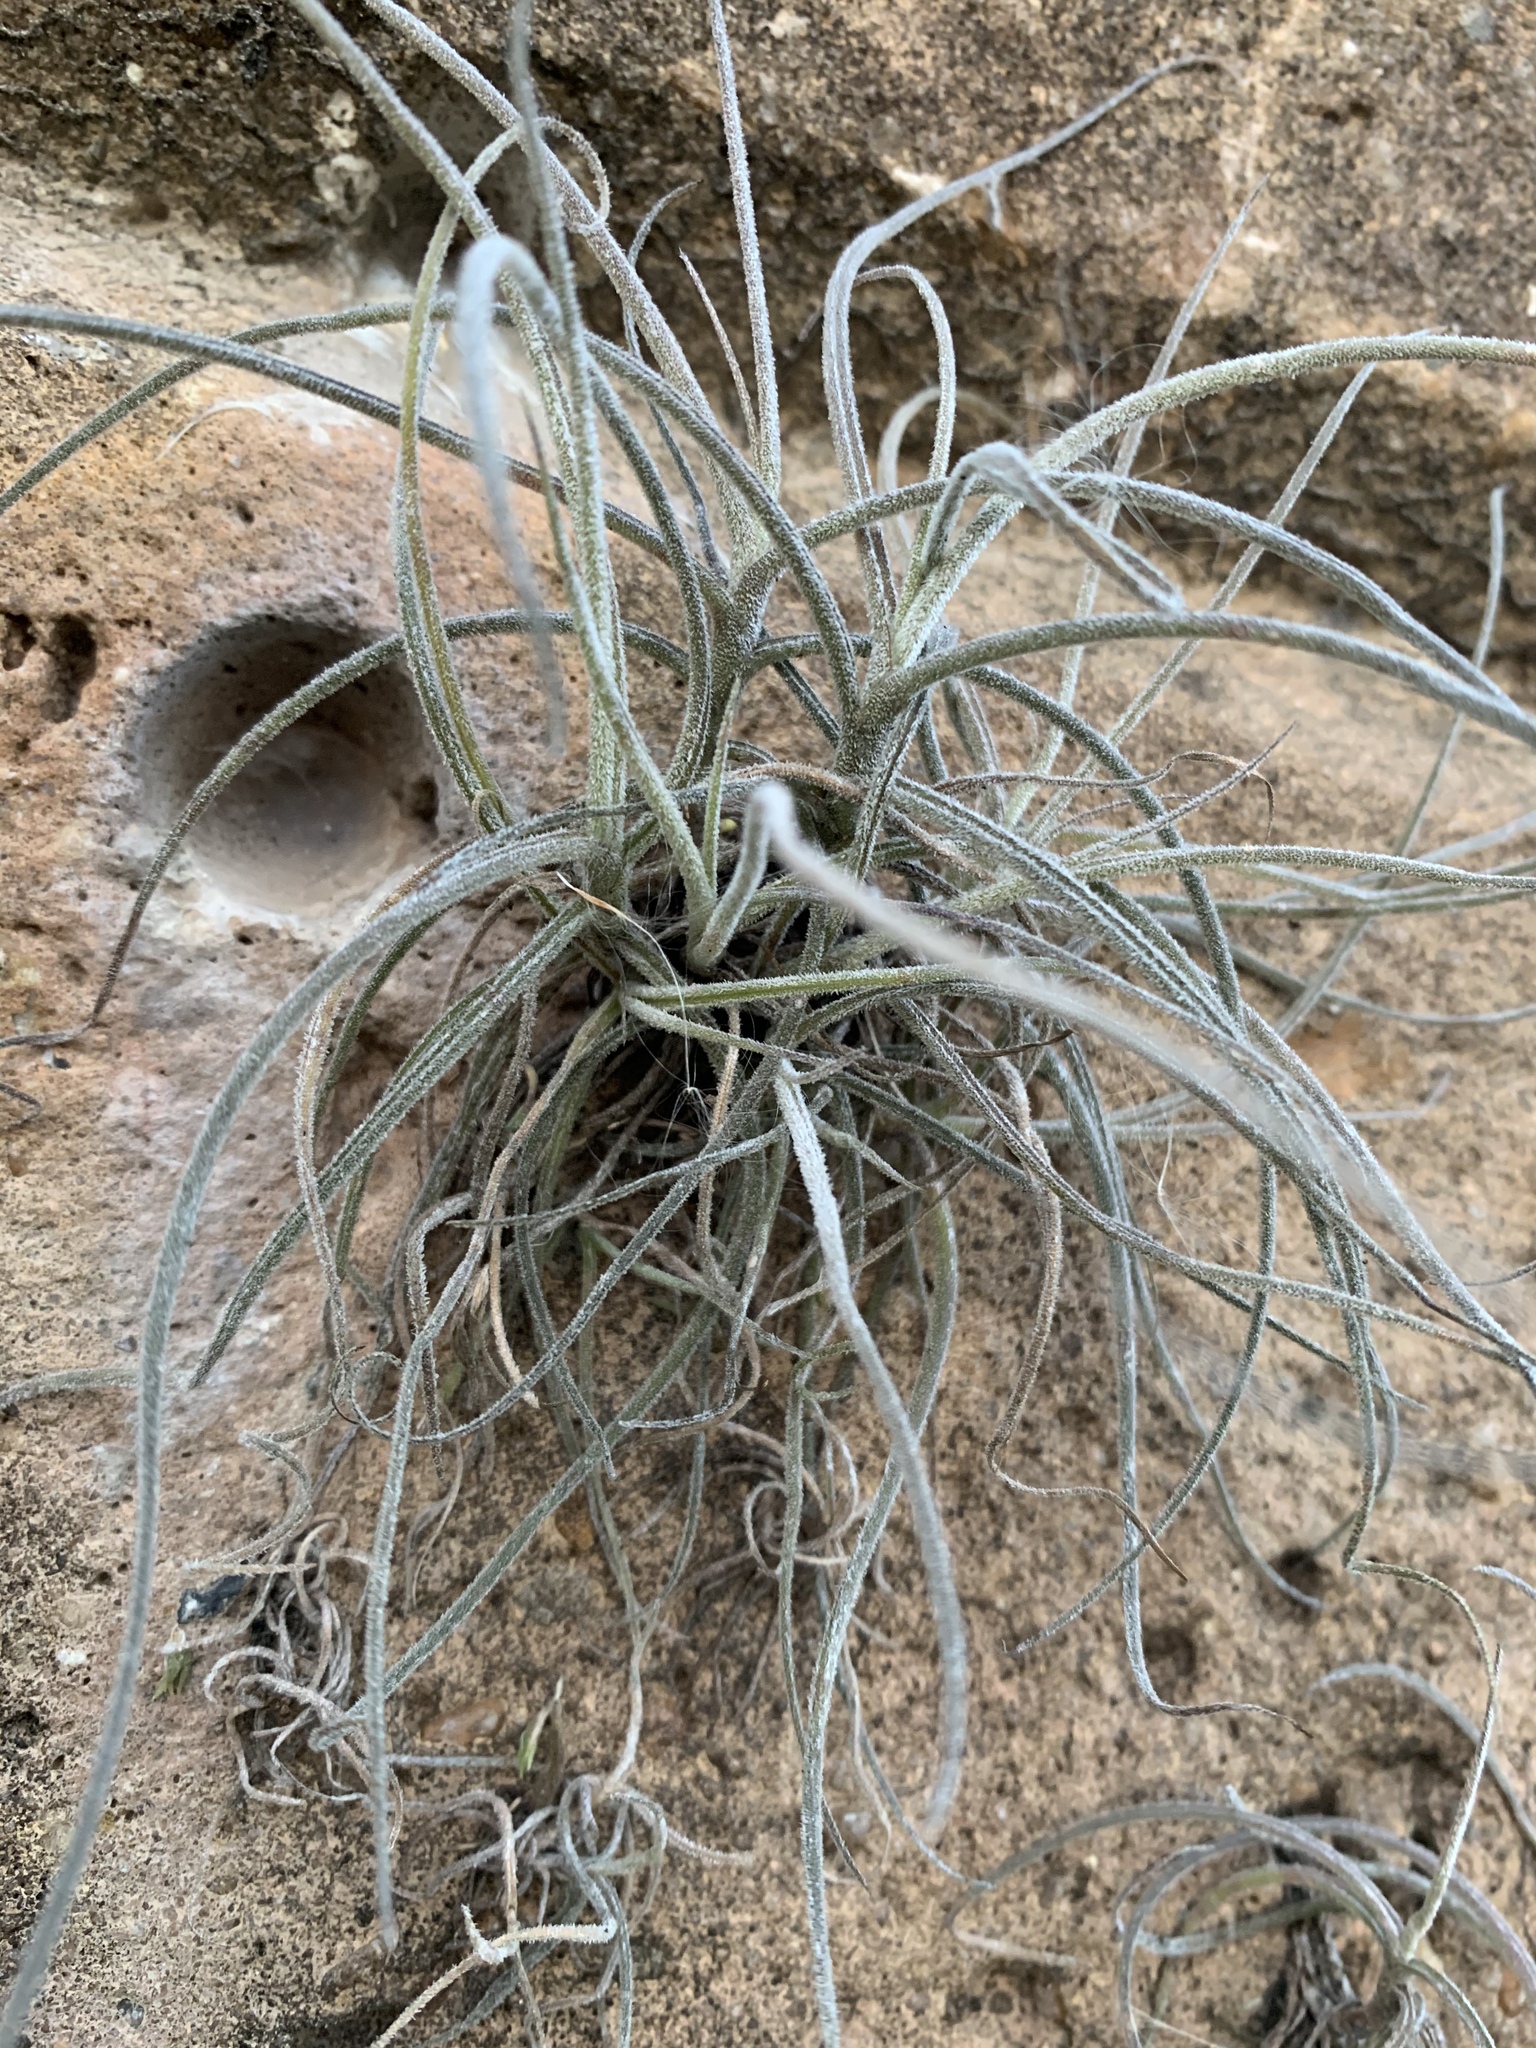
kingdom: Plantae
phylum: Tracheophyta
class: Liliopsida
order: Poales
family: Bromeliaceae
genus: Tillandsia
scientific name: Tillandsia recurvata
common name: Small ballmoss
